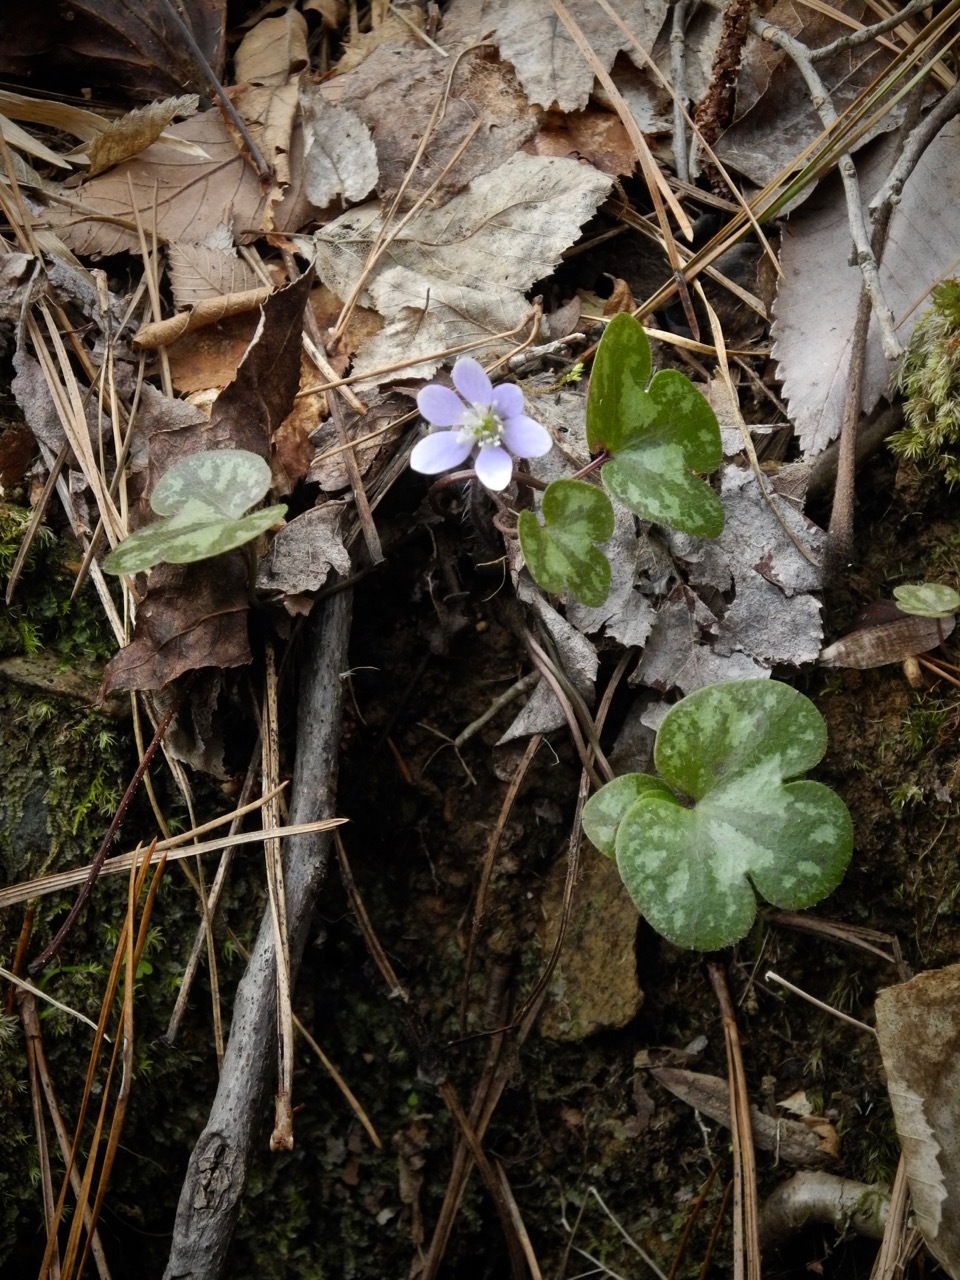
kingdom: Plantae
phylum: Tracheophyta
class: Magnoliopsida
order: Ranunculales
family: Ranunculaceae
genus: Hepatica
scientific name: Hepatica americana
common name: American hepatica
